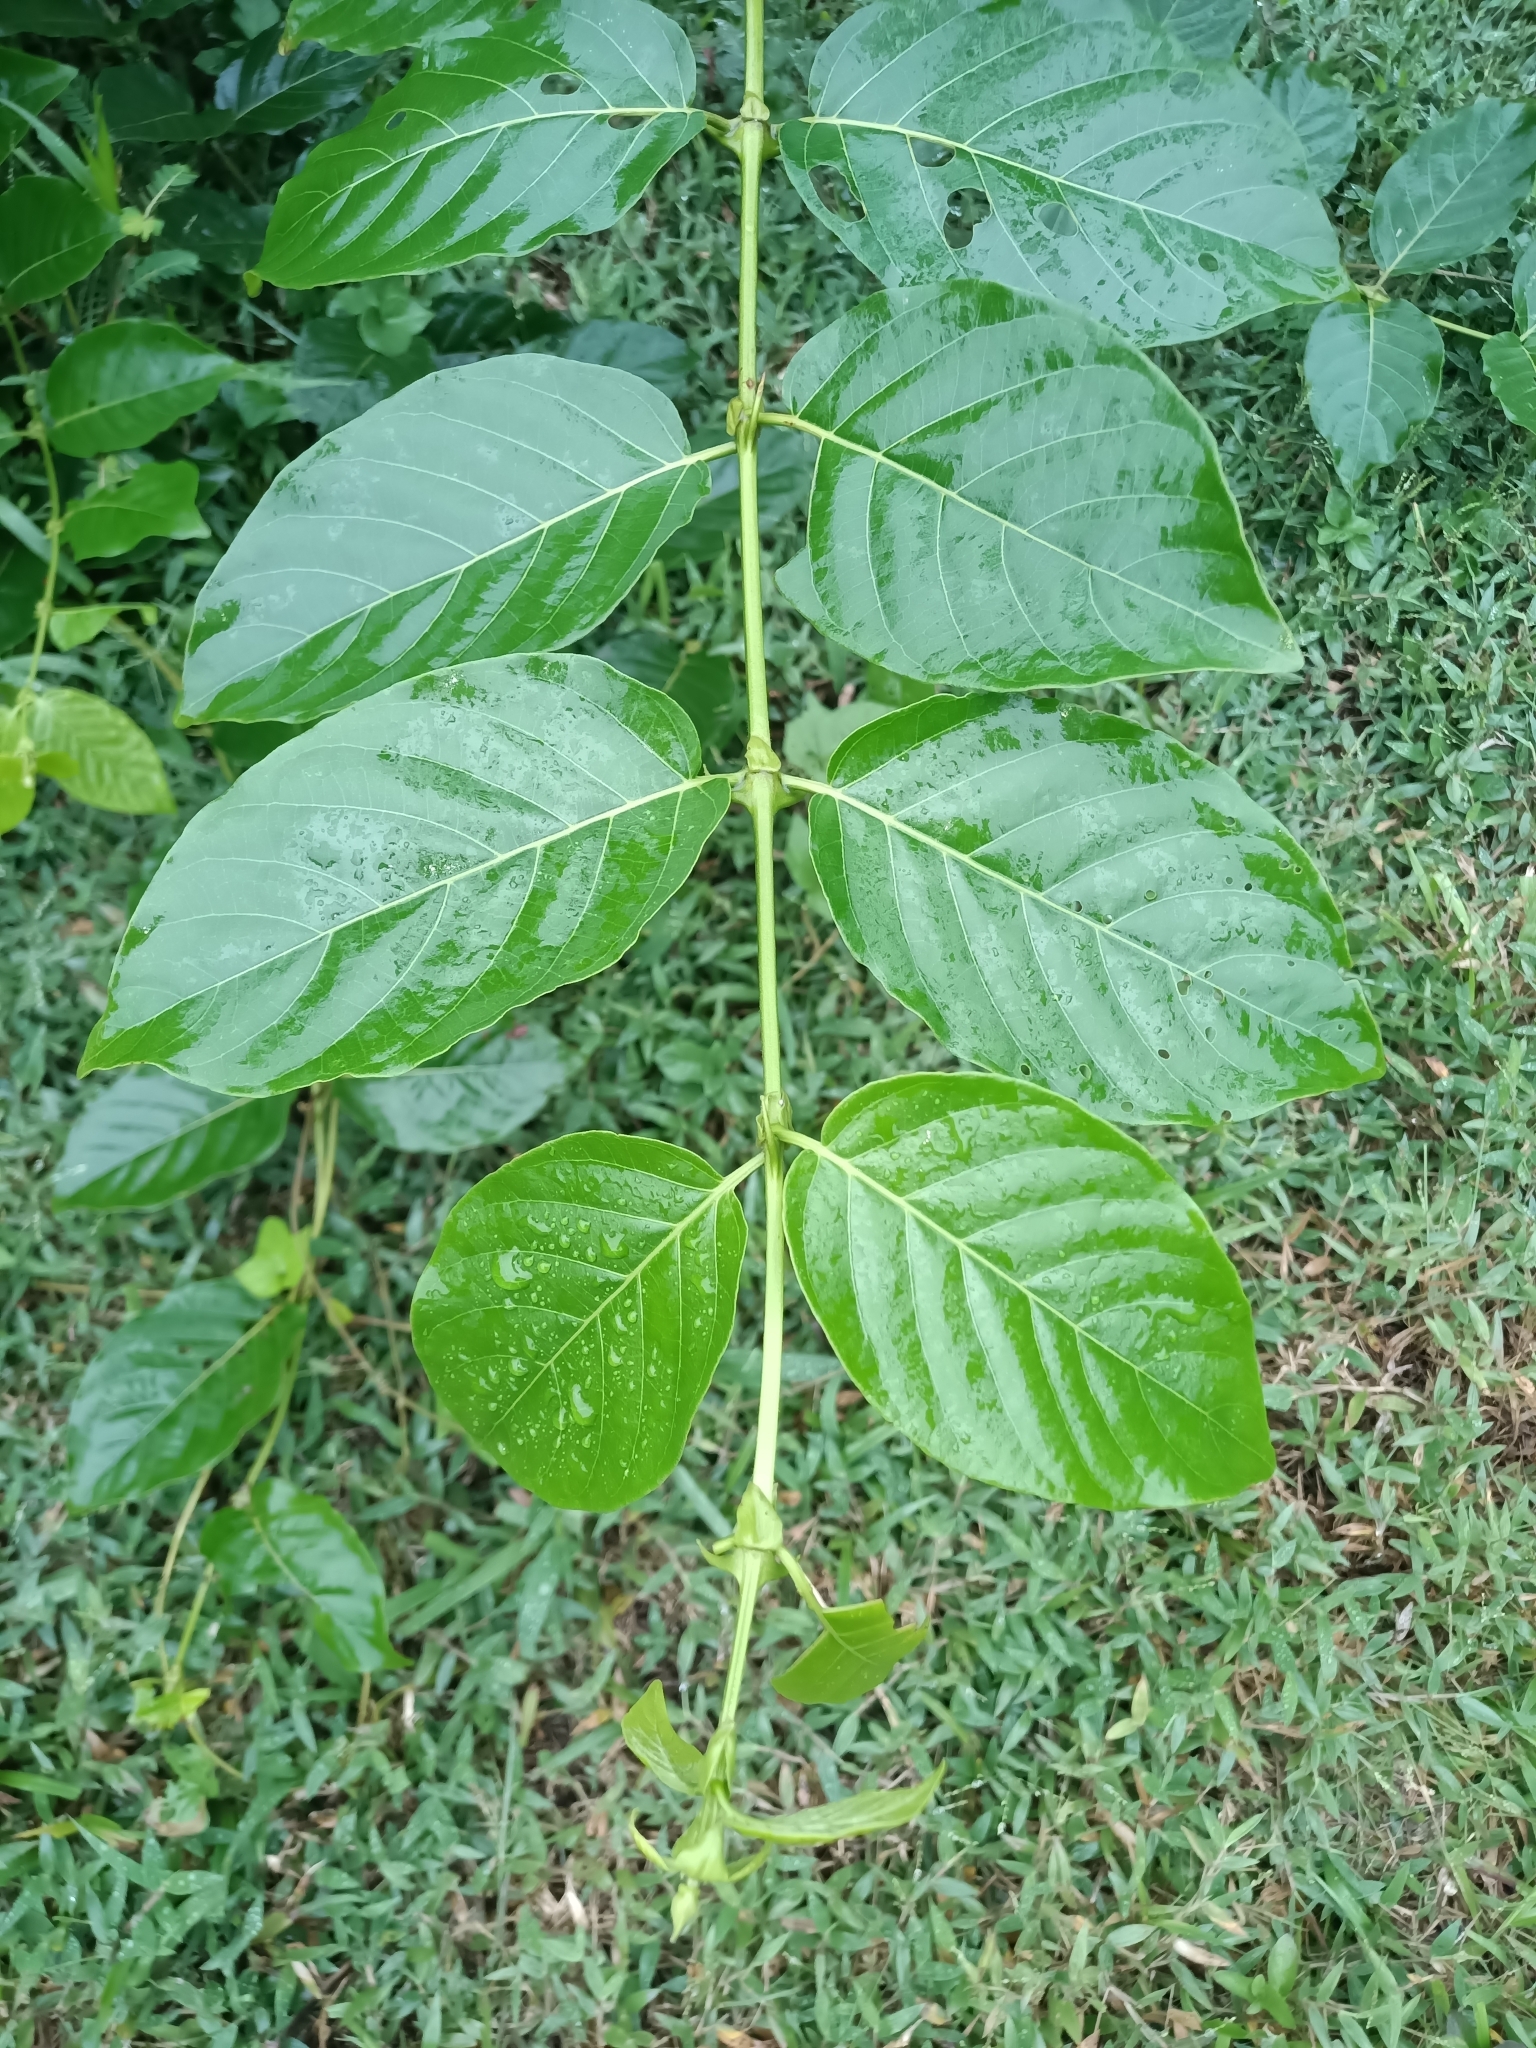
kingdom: Plantae
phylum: Tracheophyta
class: Magnoliopsida
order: Gentianales
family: Rubiaceae
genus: Uncaria
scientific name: Uncaria tomentosa
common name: Cat's-claw
